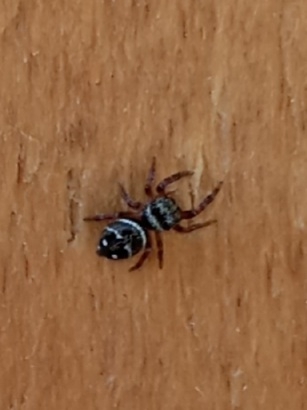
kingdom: Animalia
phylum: Arthropoda
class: Arachnida
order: Araneae
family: Salticidae
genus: Phidippus
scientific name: Phidippus clarus
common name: Brilliant jumping spider
